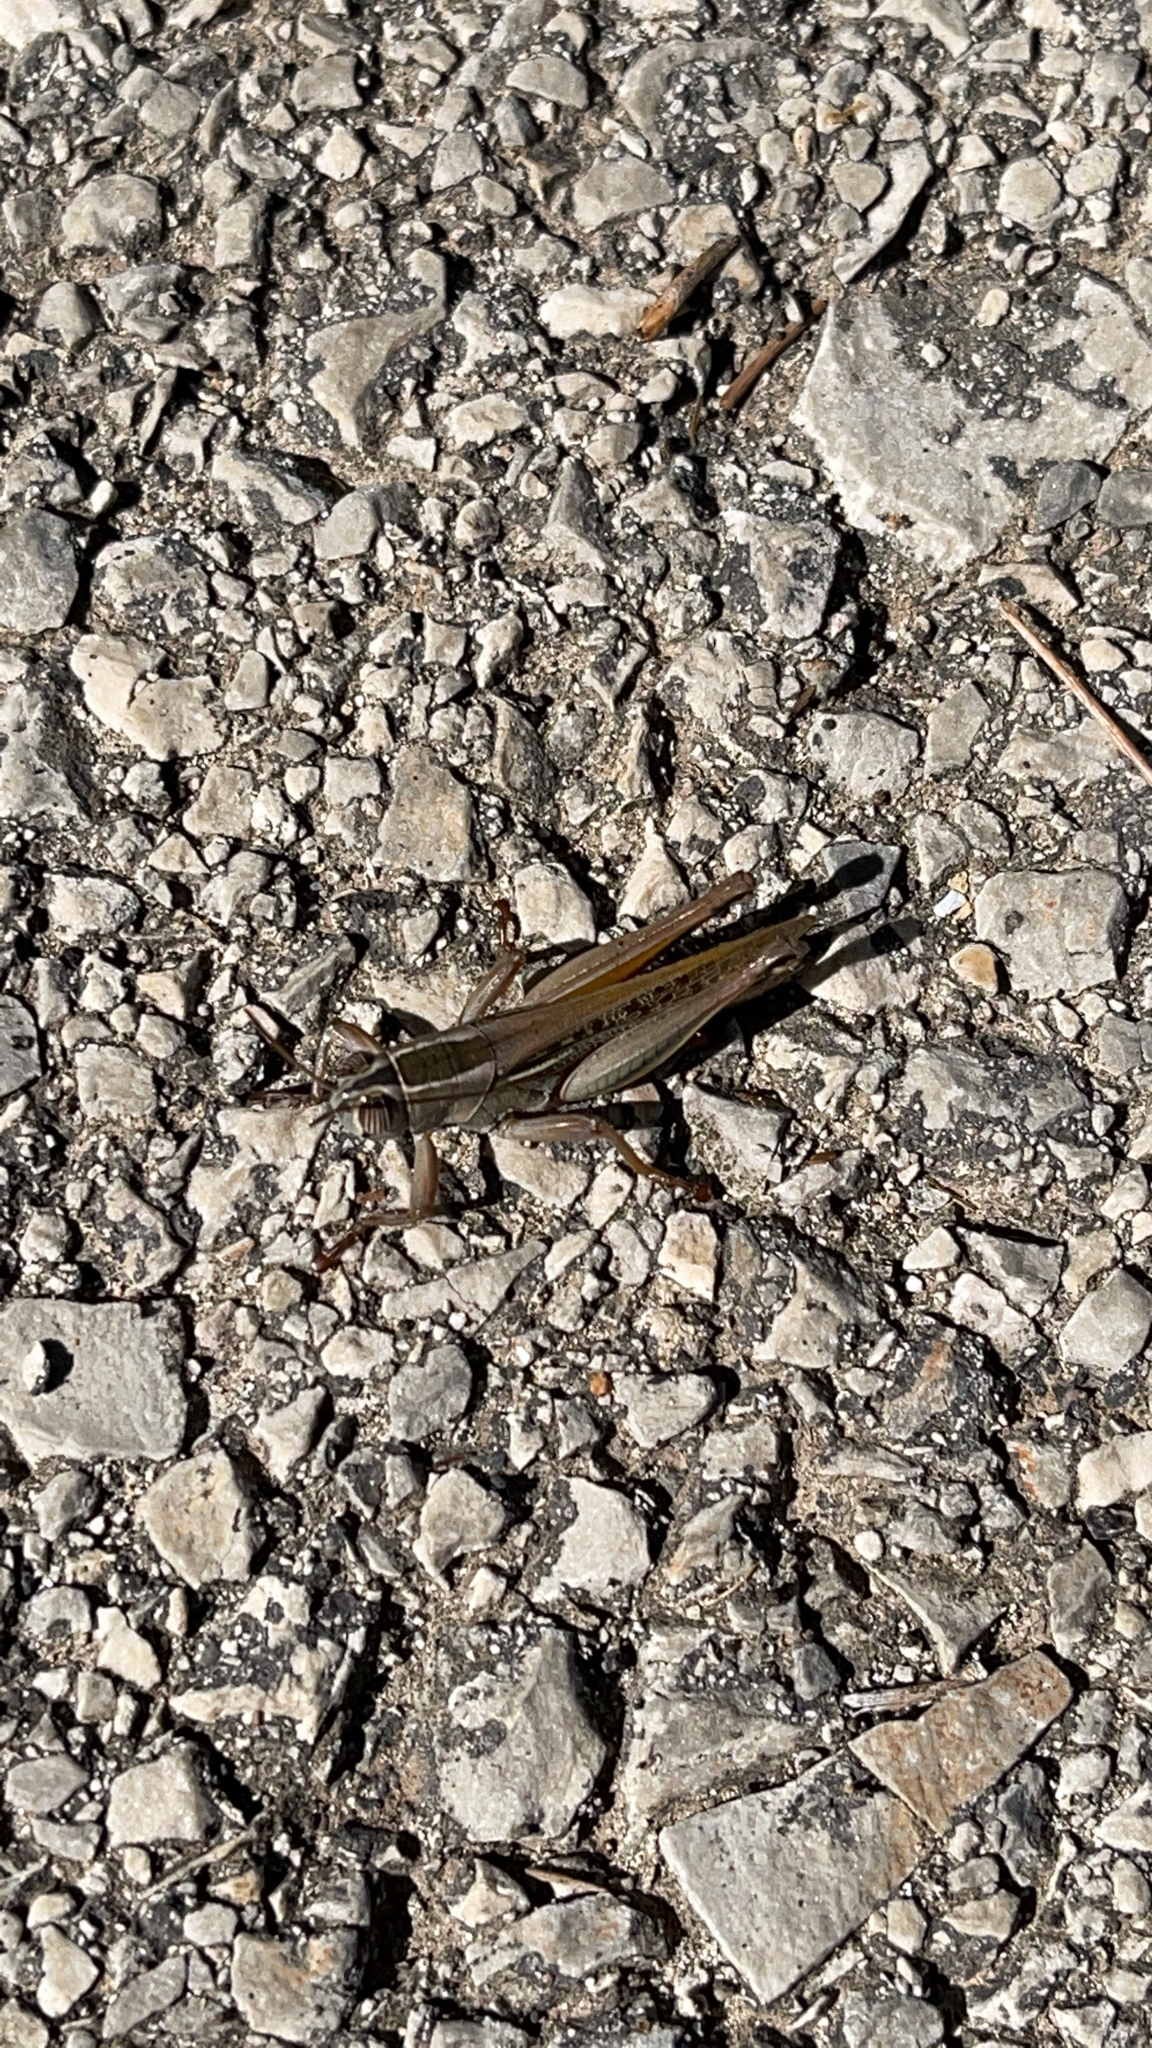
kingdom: Animalia
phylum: Arthropoda
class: Insecta
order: Orthoptera
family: Acrididae
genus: Eyprepocnemis
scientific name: Eyprepocnemis plorans
